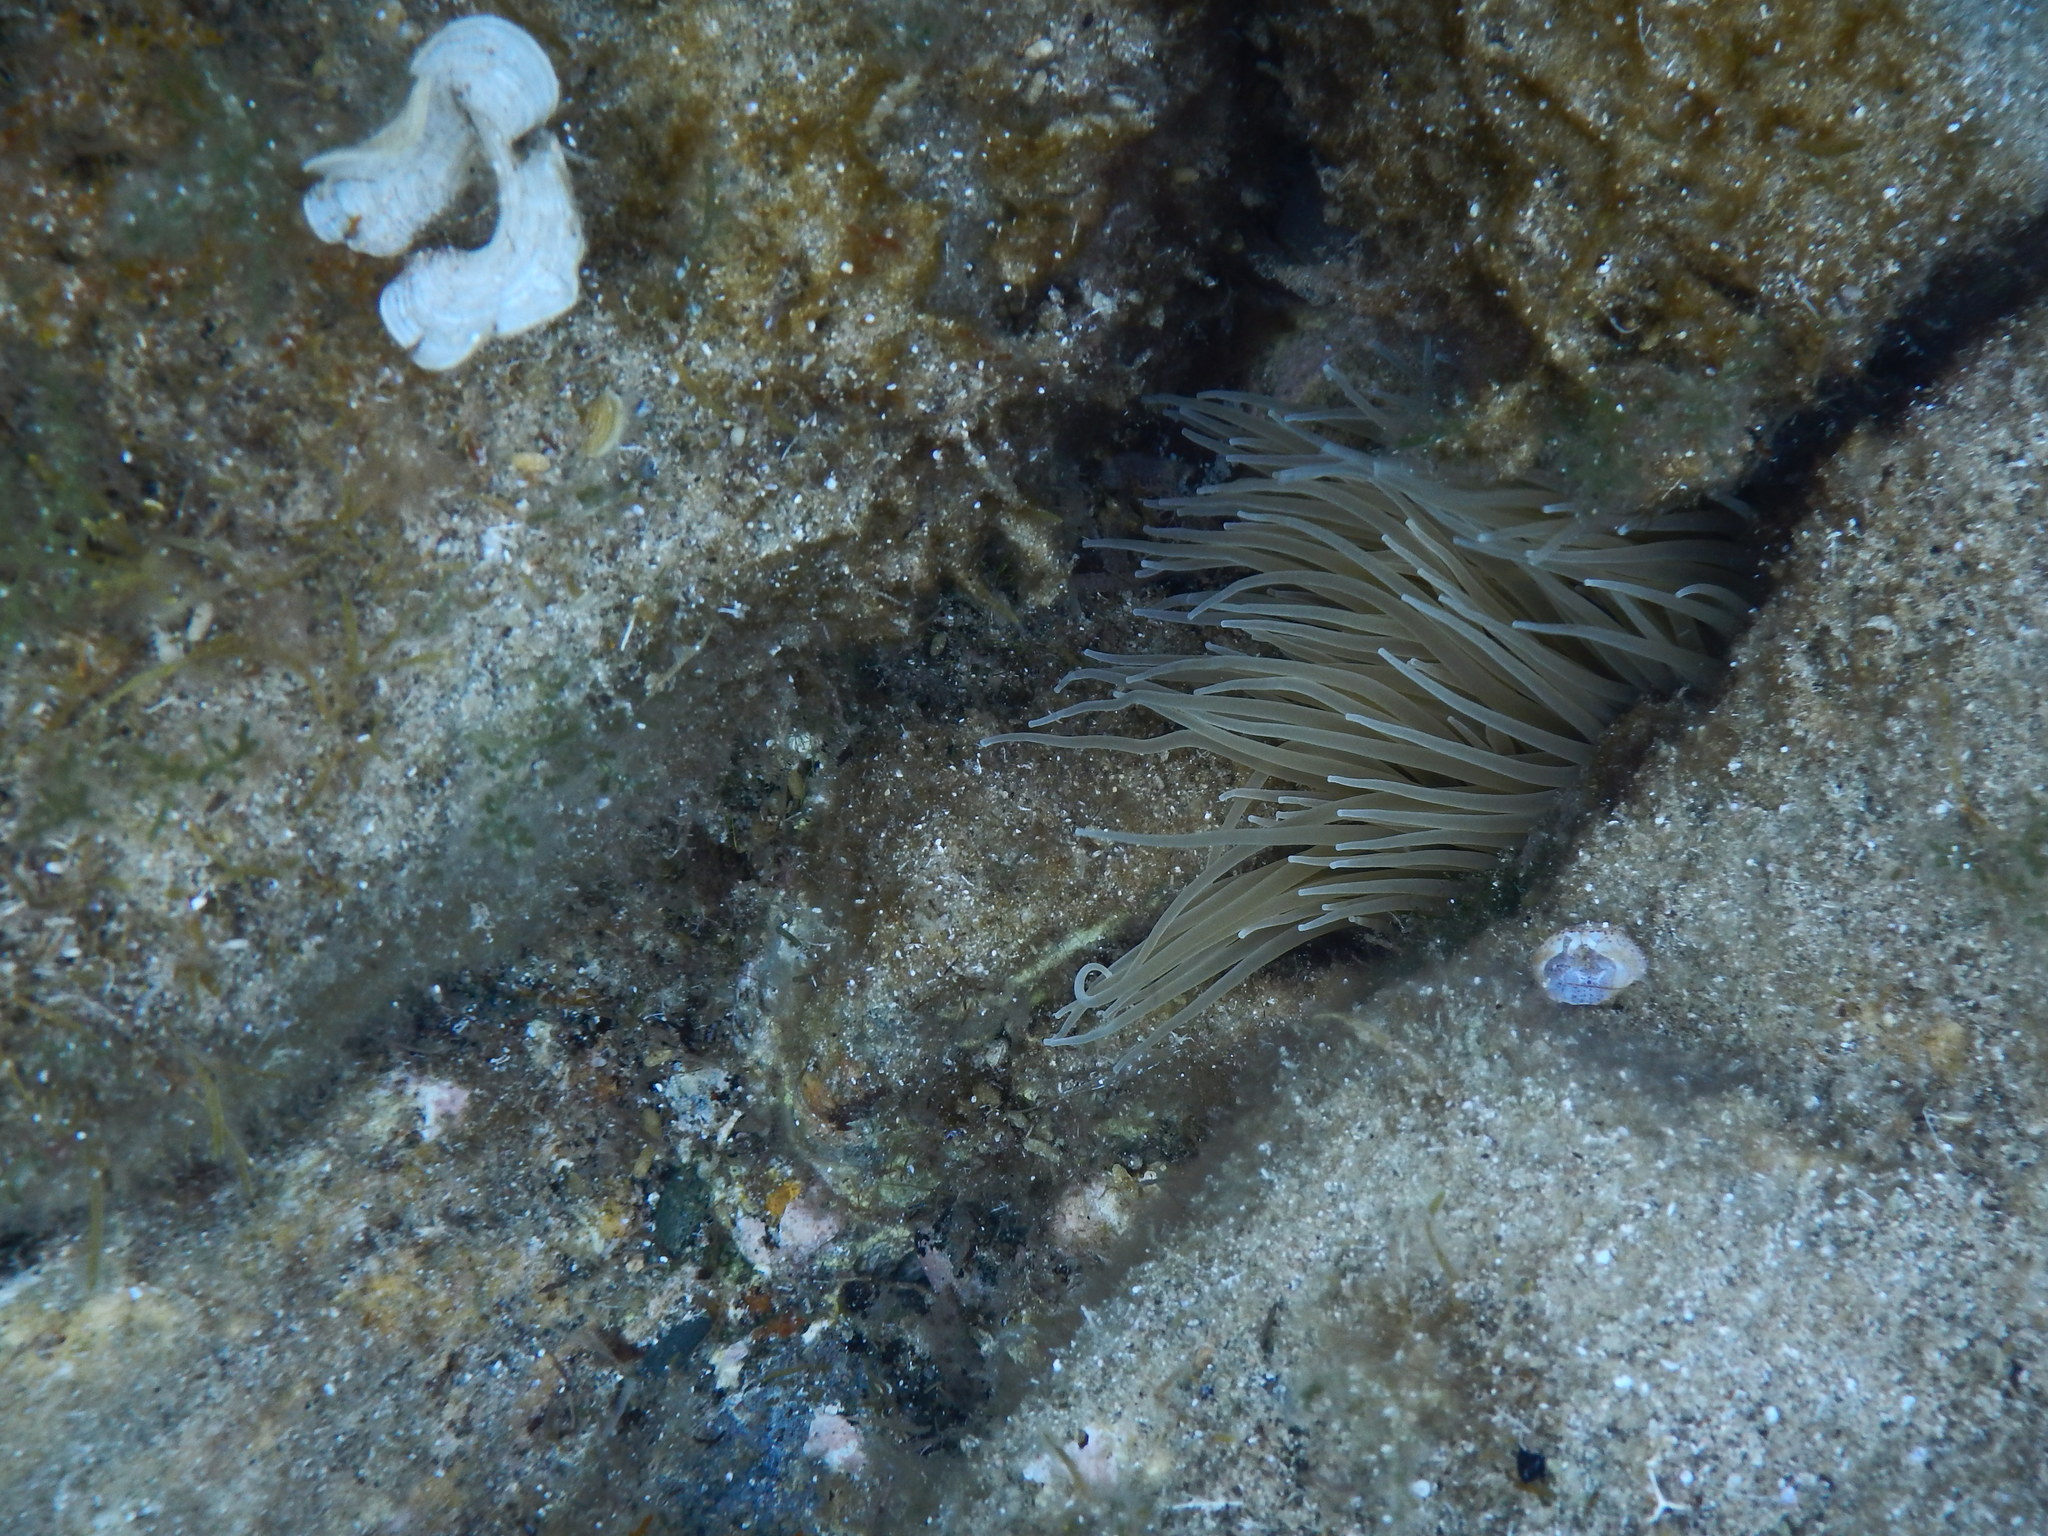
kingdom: Animalia
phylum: Cnidaria
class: Anthozoa
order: Actiniaria
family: Actiniidae
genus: Anemonia
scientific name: Anemonia viridis
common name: Snakelocks anemone
